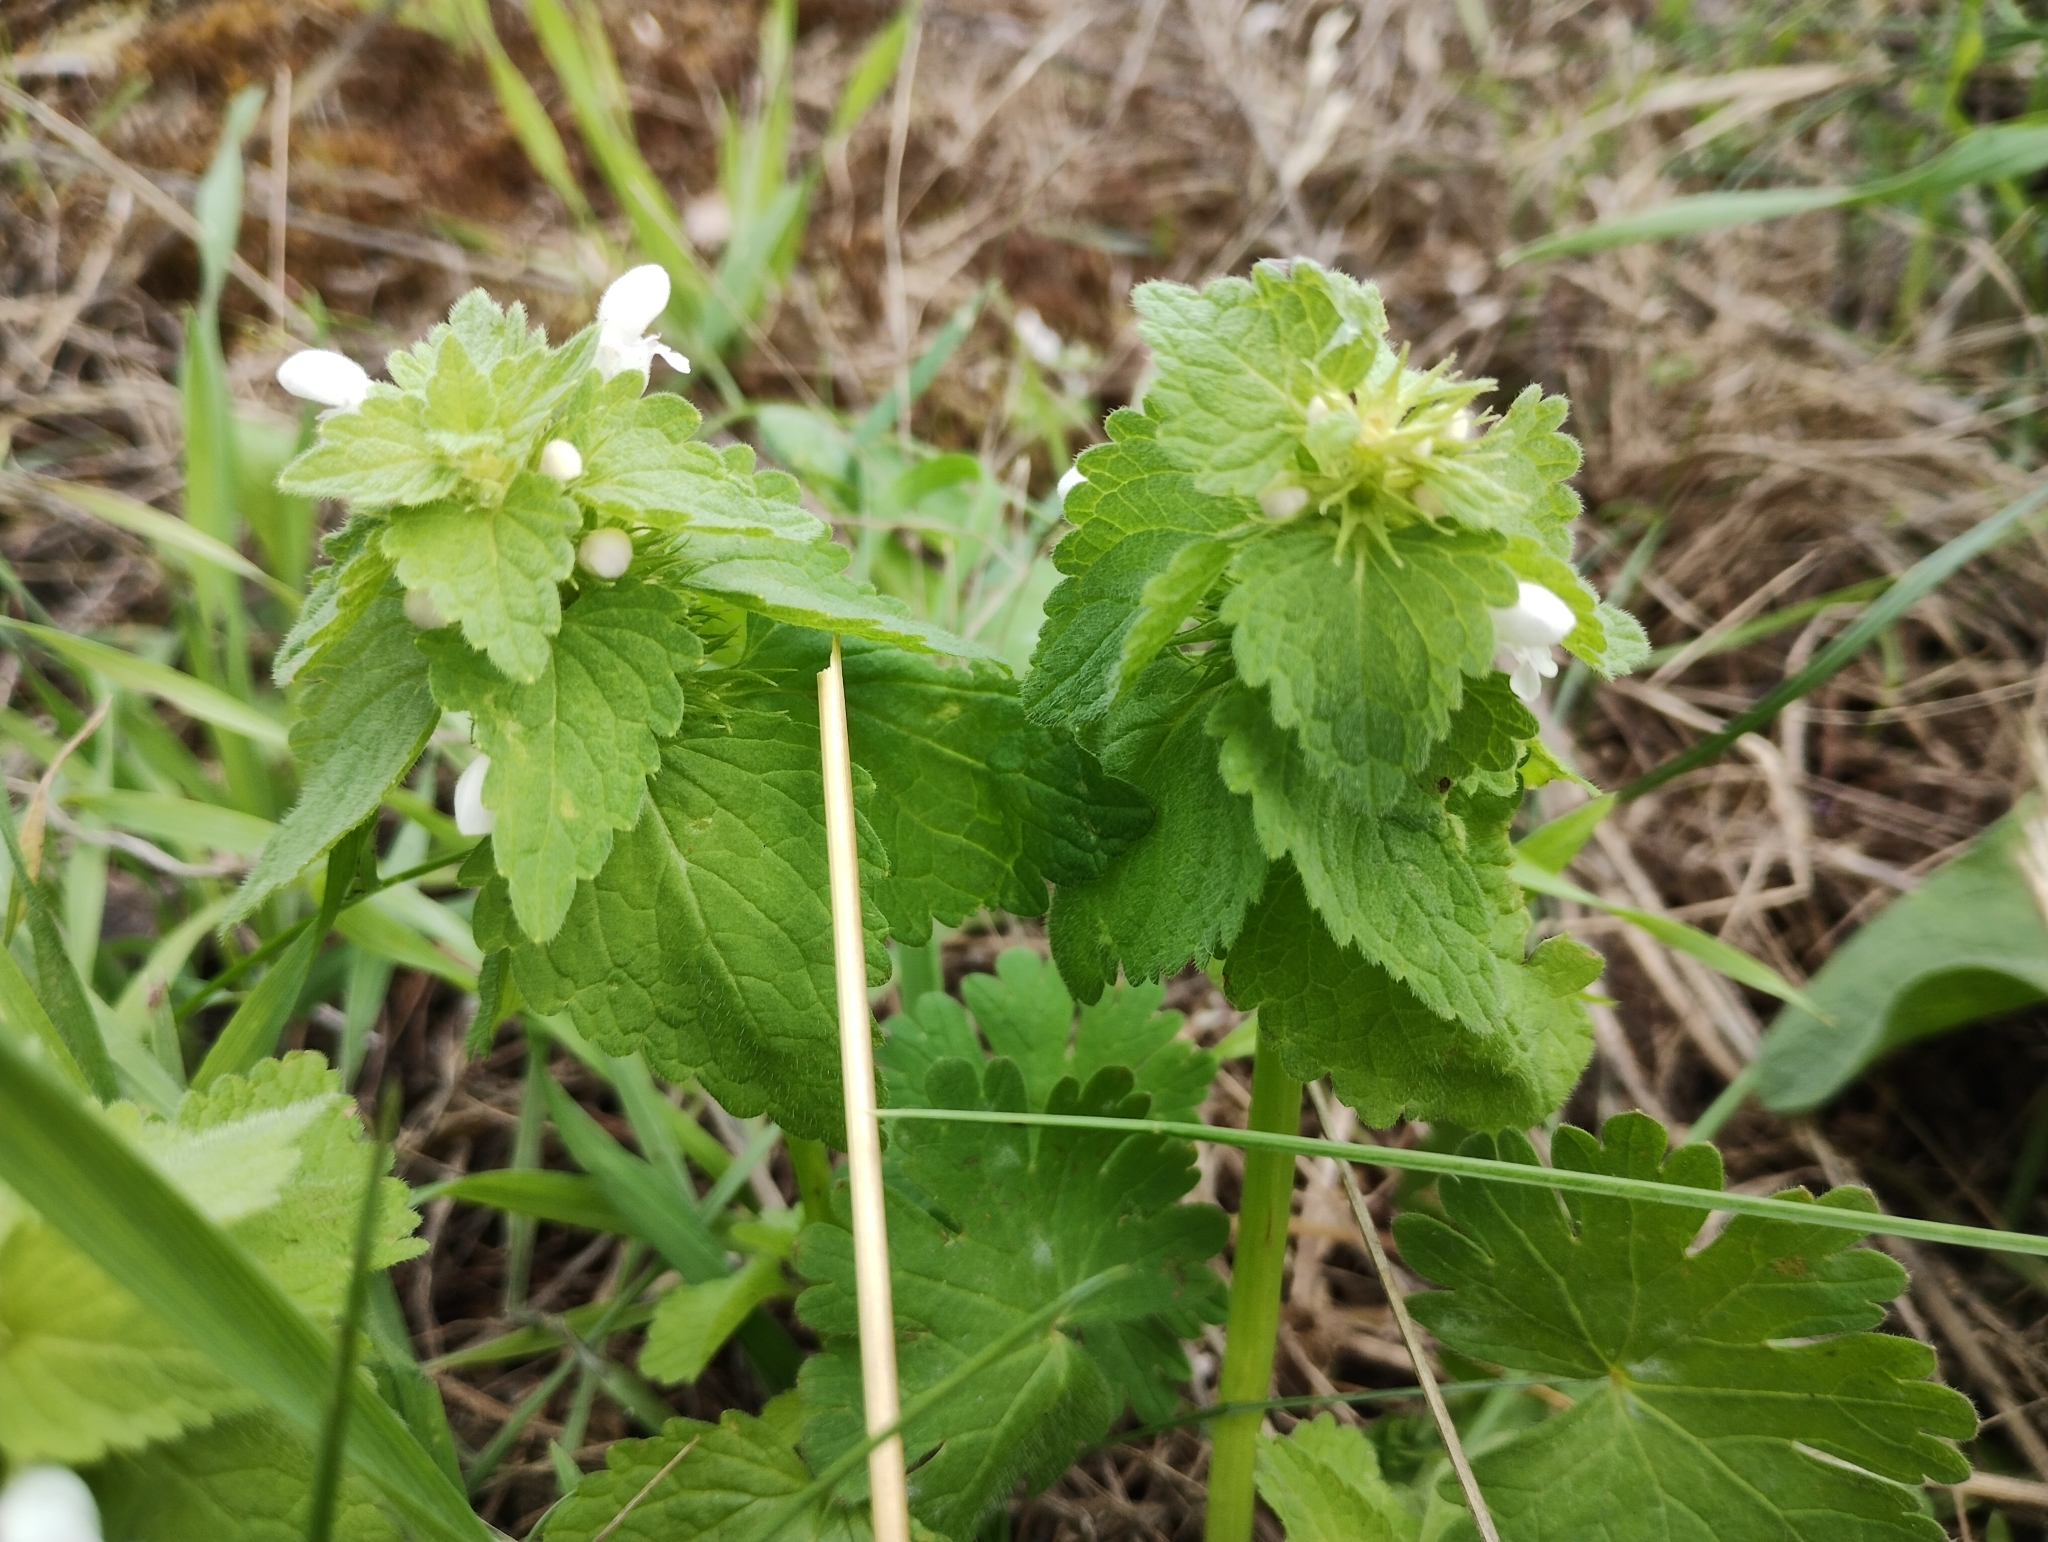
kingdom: Plantae
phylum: Tracheophyta
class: Magnoliopsida
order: Lamiales
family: Lamiaceae
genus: Lamium
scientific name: Lamium purpureum
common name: Red dead-nettle
